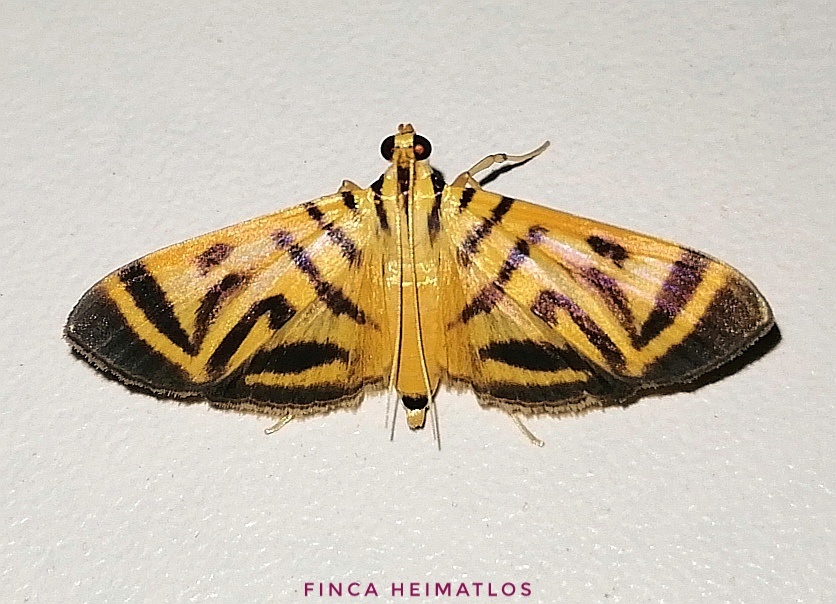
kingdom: Animalia
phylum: Arthropoda
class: Insecta
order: Lepidoptera
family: Crambidae
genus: Zebronia
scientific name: Zebronia
